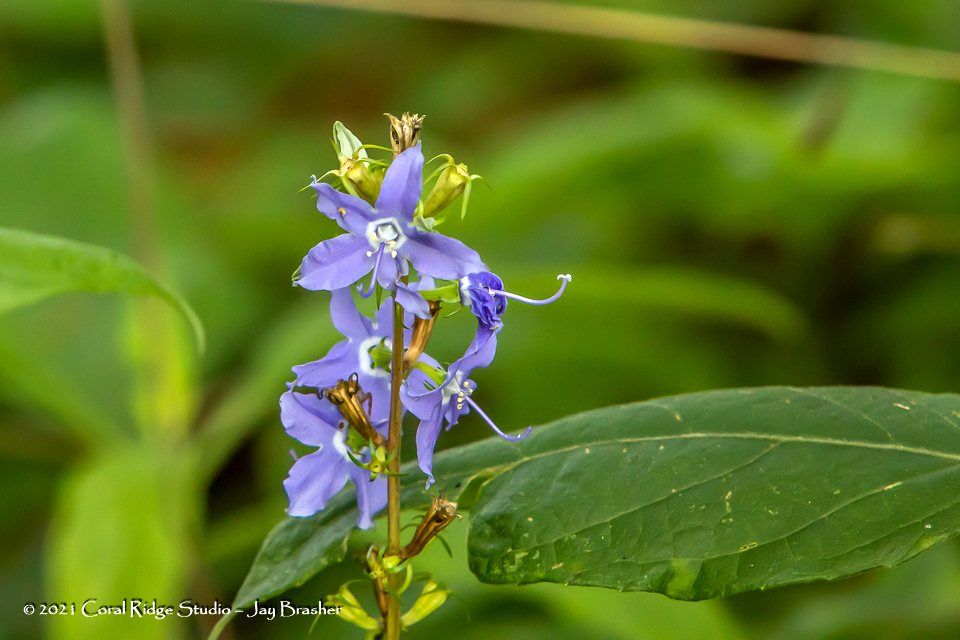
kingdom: Plantae
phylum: Tracheophyta
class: Magnoliopsida
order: Asterales
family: Campanulaceae
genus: Campanulastrum
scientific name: Campanulastrum americanum
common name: American bellflower
